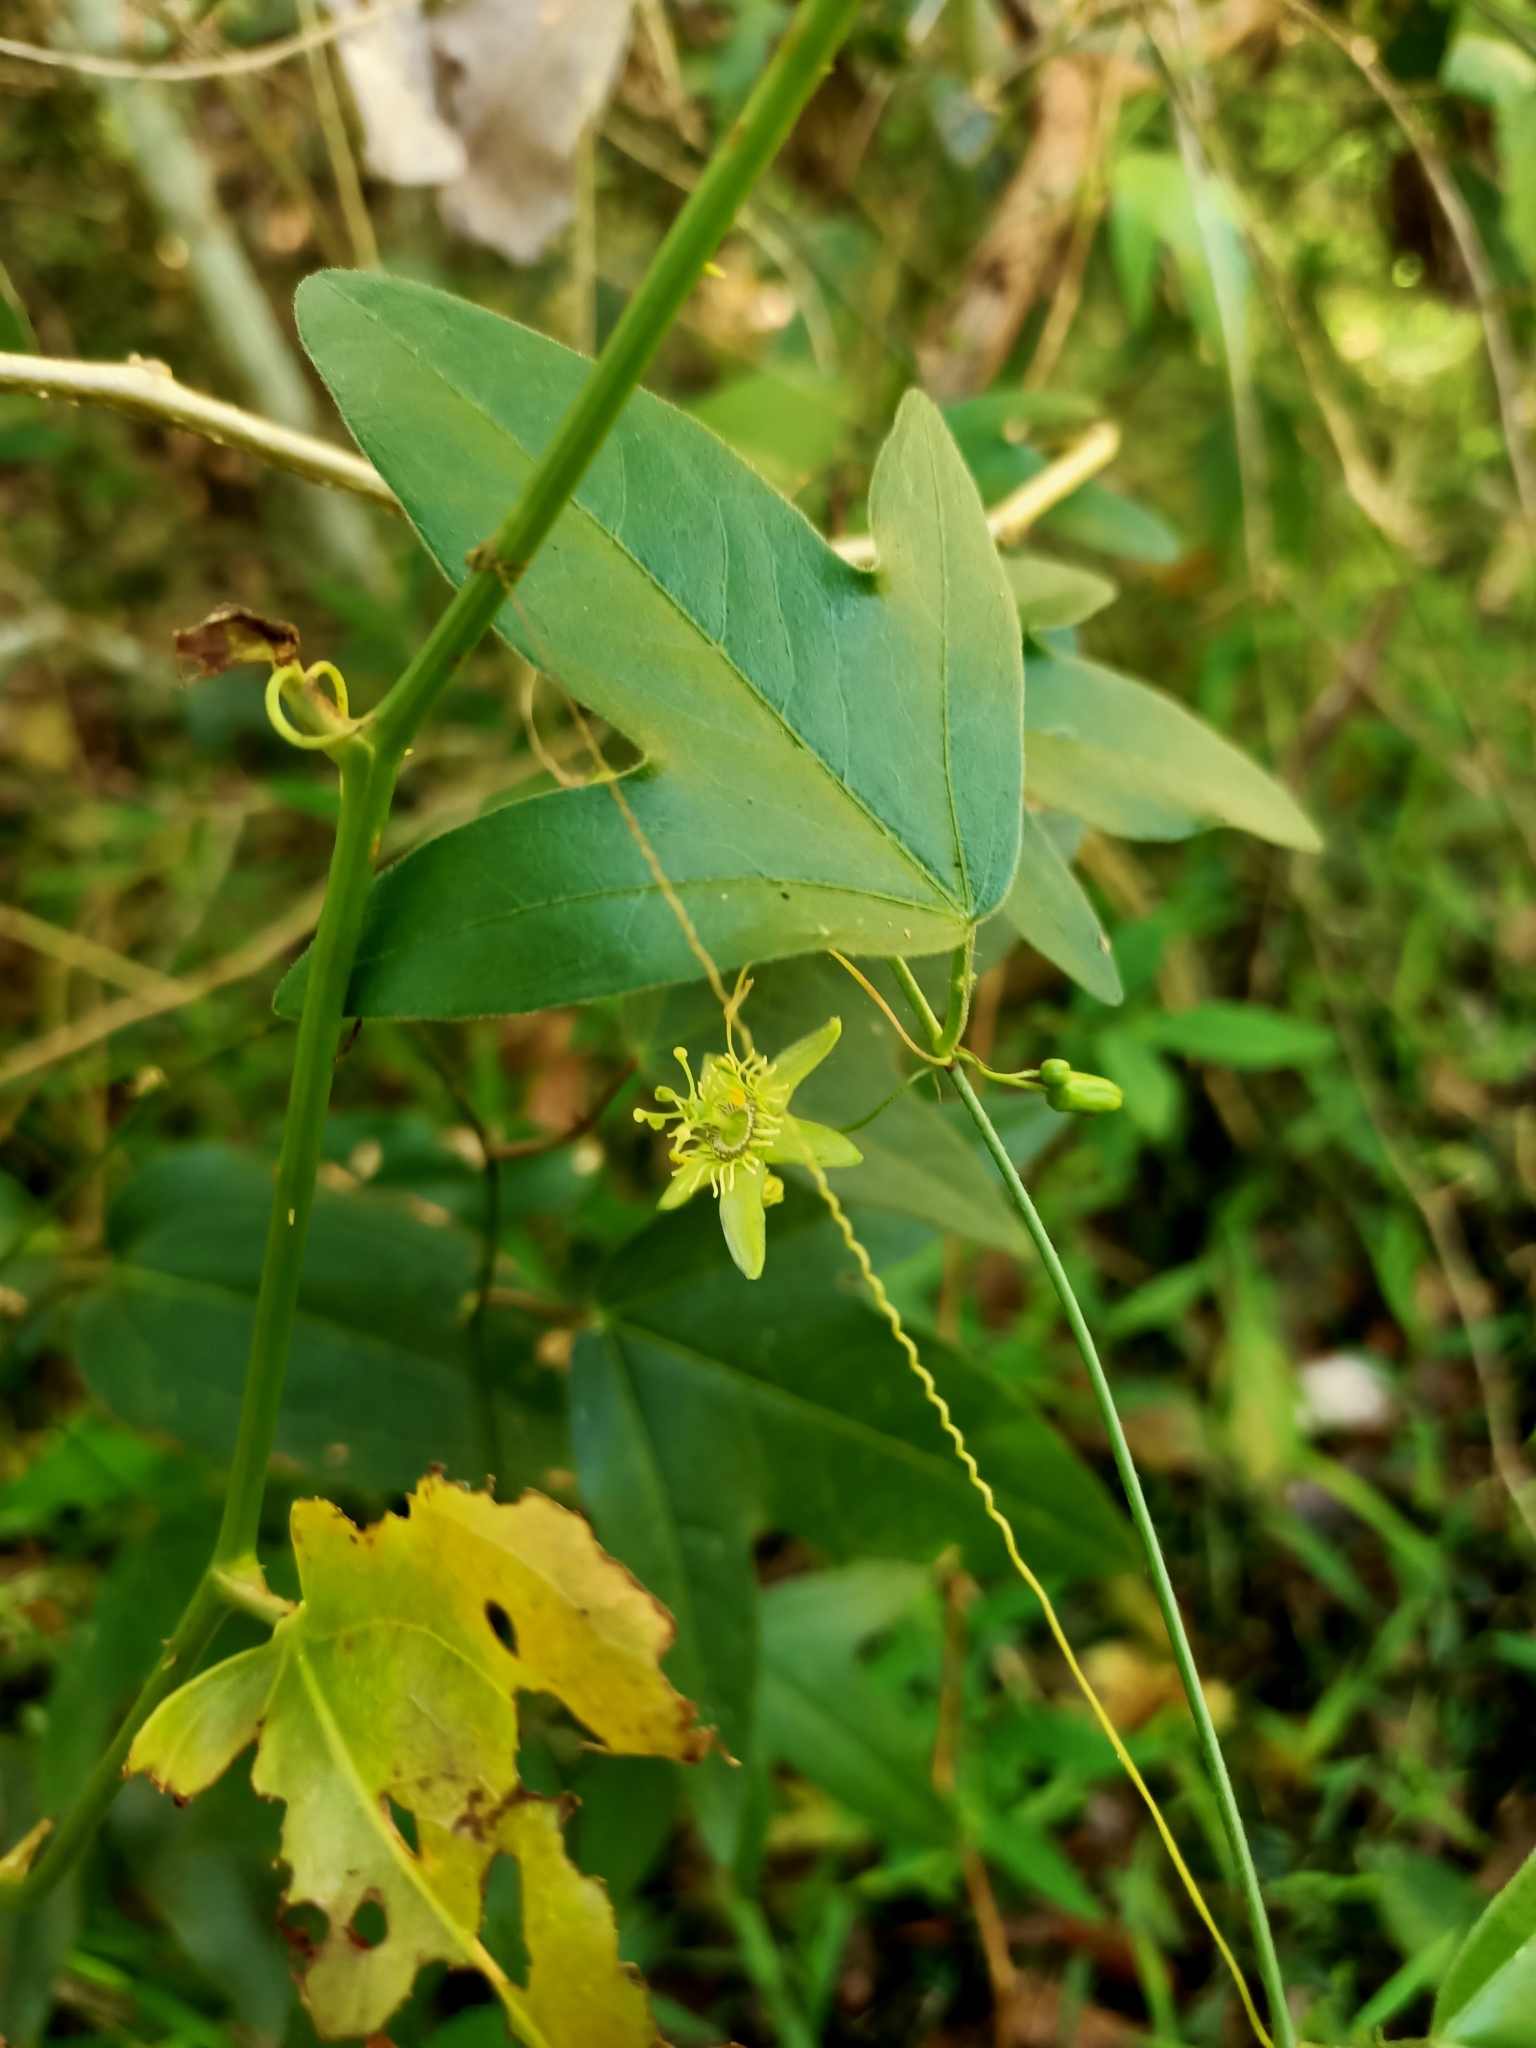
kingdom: Plantae
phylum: Tracheophyta
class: Magnoliopsida
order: Malpighiales
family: Passifloraceae
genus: Passiflora
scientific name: Passiflora suberosa
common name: Wild passionfruit
